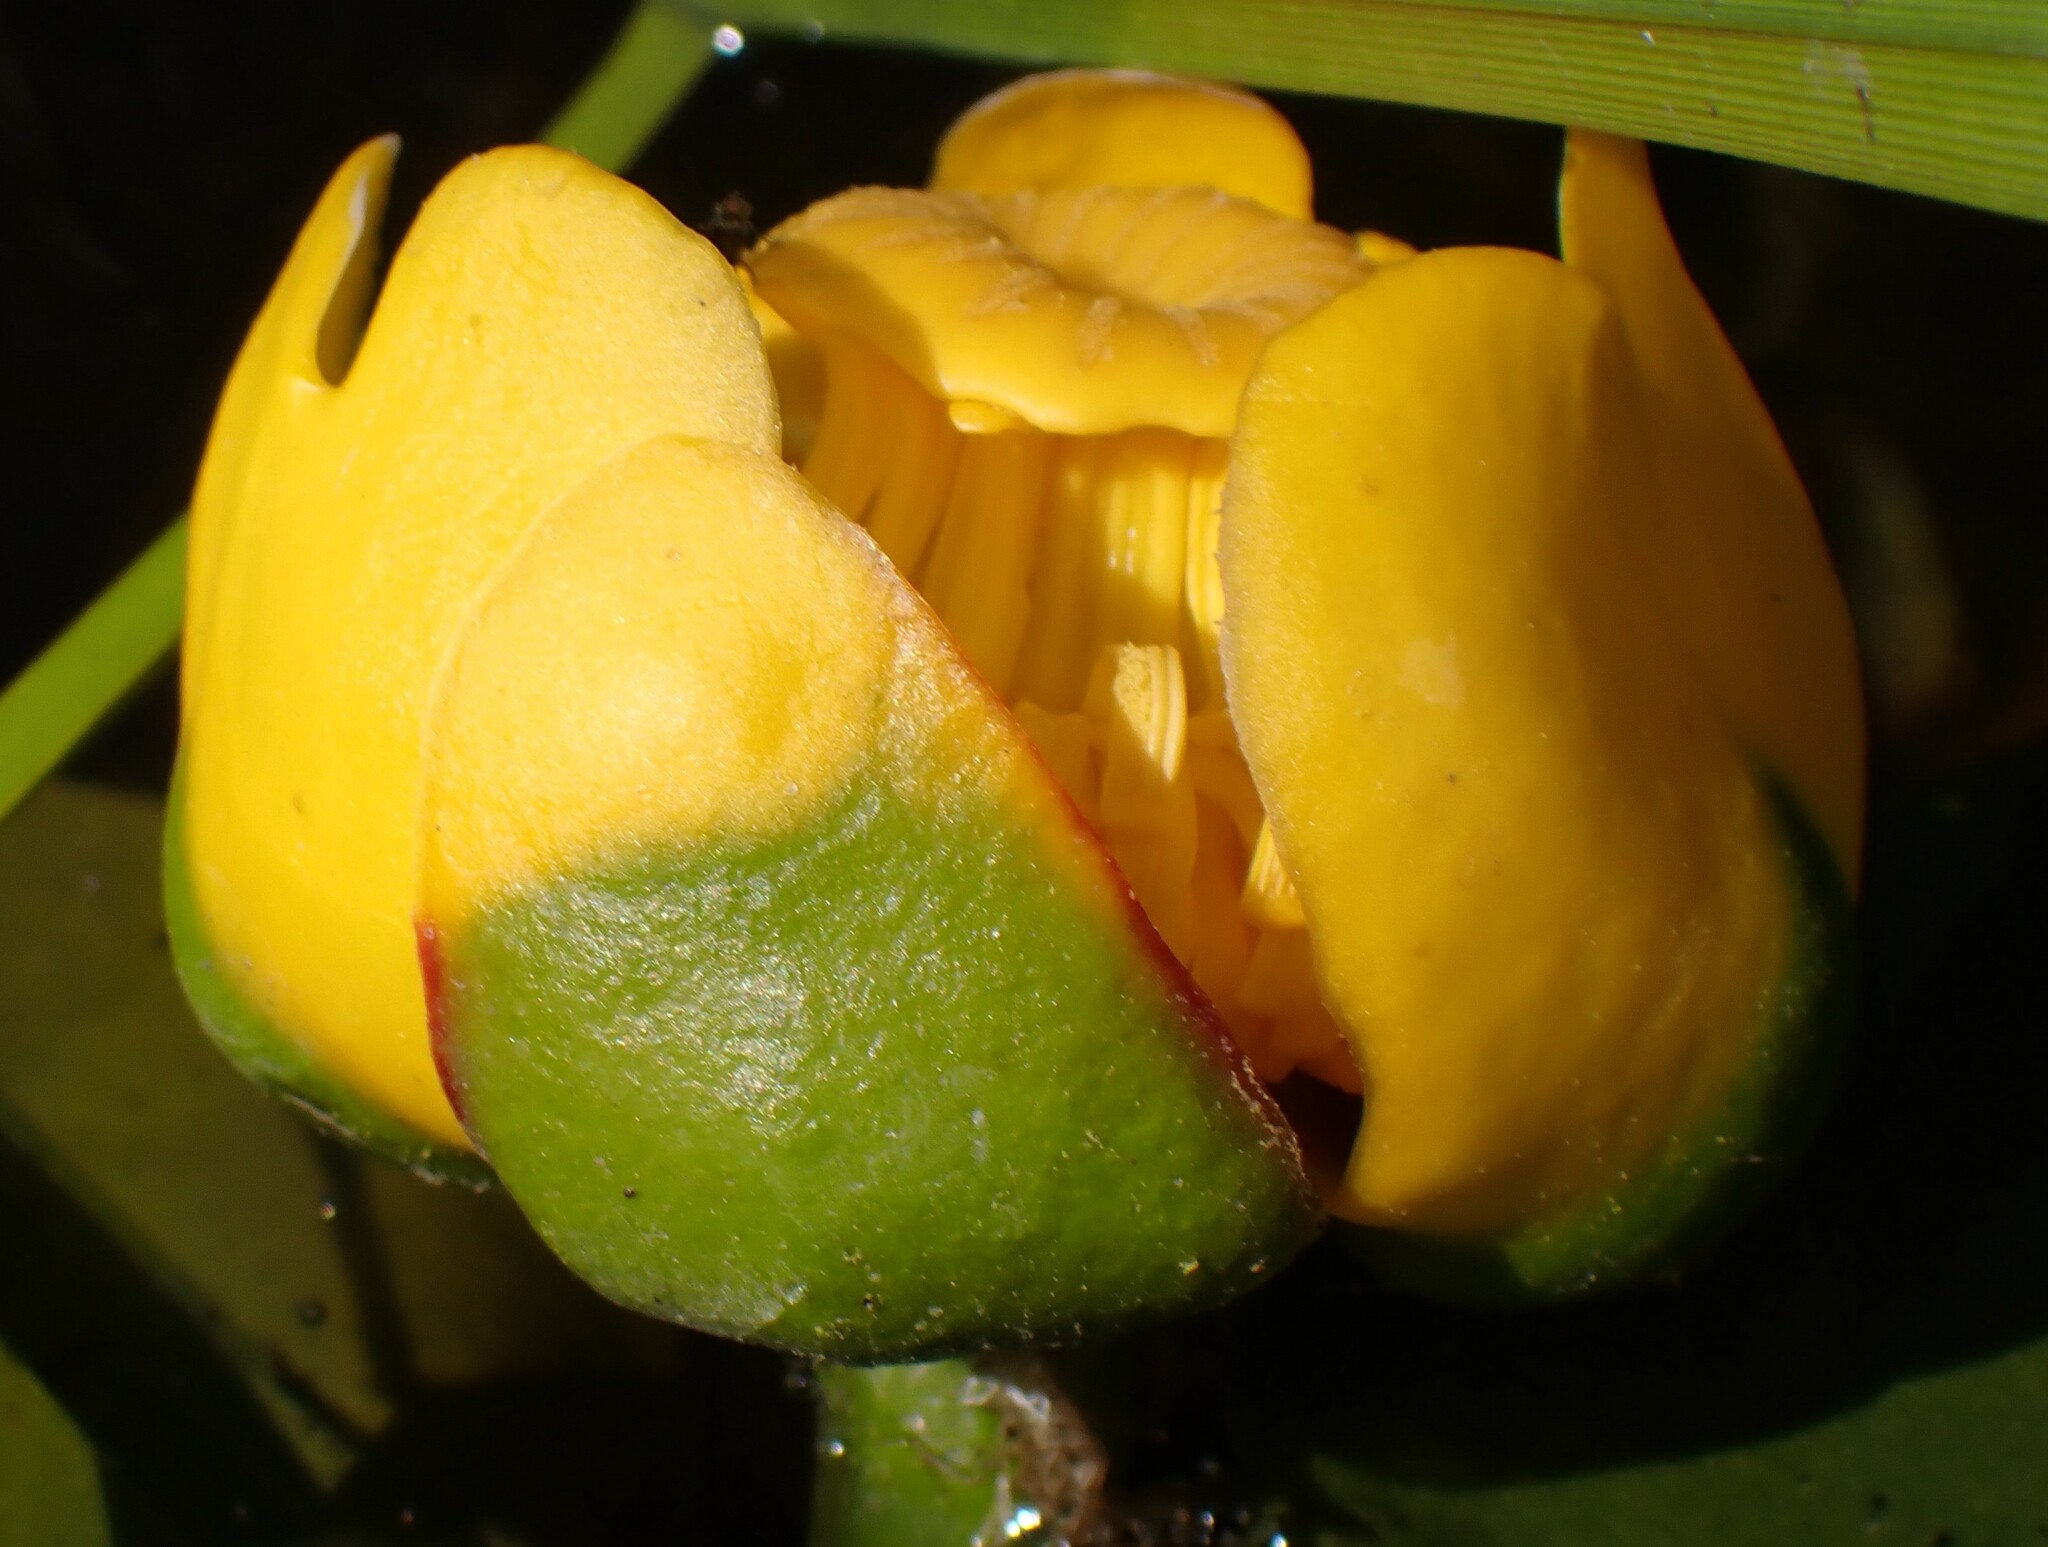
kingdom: Plantae
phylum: Tracheophyta
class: Magnoliopsida
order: Nymphaeales
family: Nymphaeaceae
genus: Nuphar
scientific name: Nuphar variegata
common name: Beaver-root
